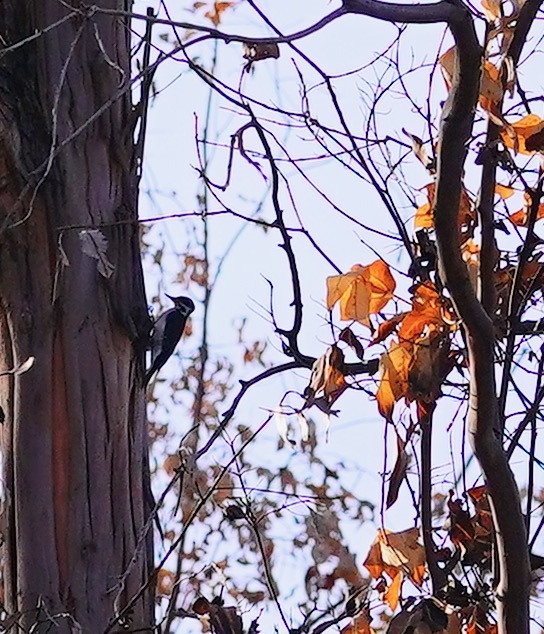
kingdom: Animalia
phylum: Chordata
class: Aves
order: Piciformes
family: Picidae
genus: Leuconotopicus
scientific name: Leuconotopicus villosus
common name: Hairy woodpecker
